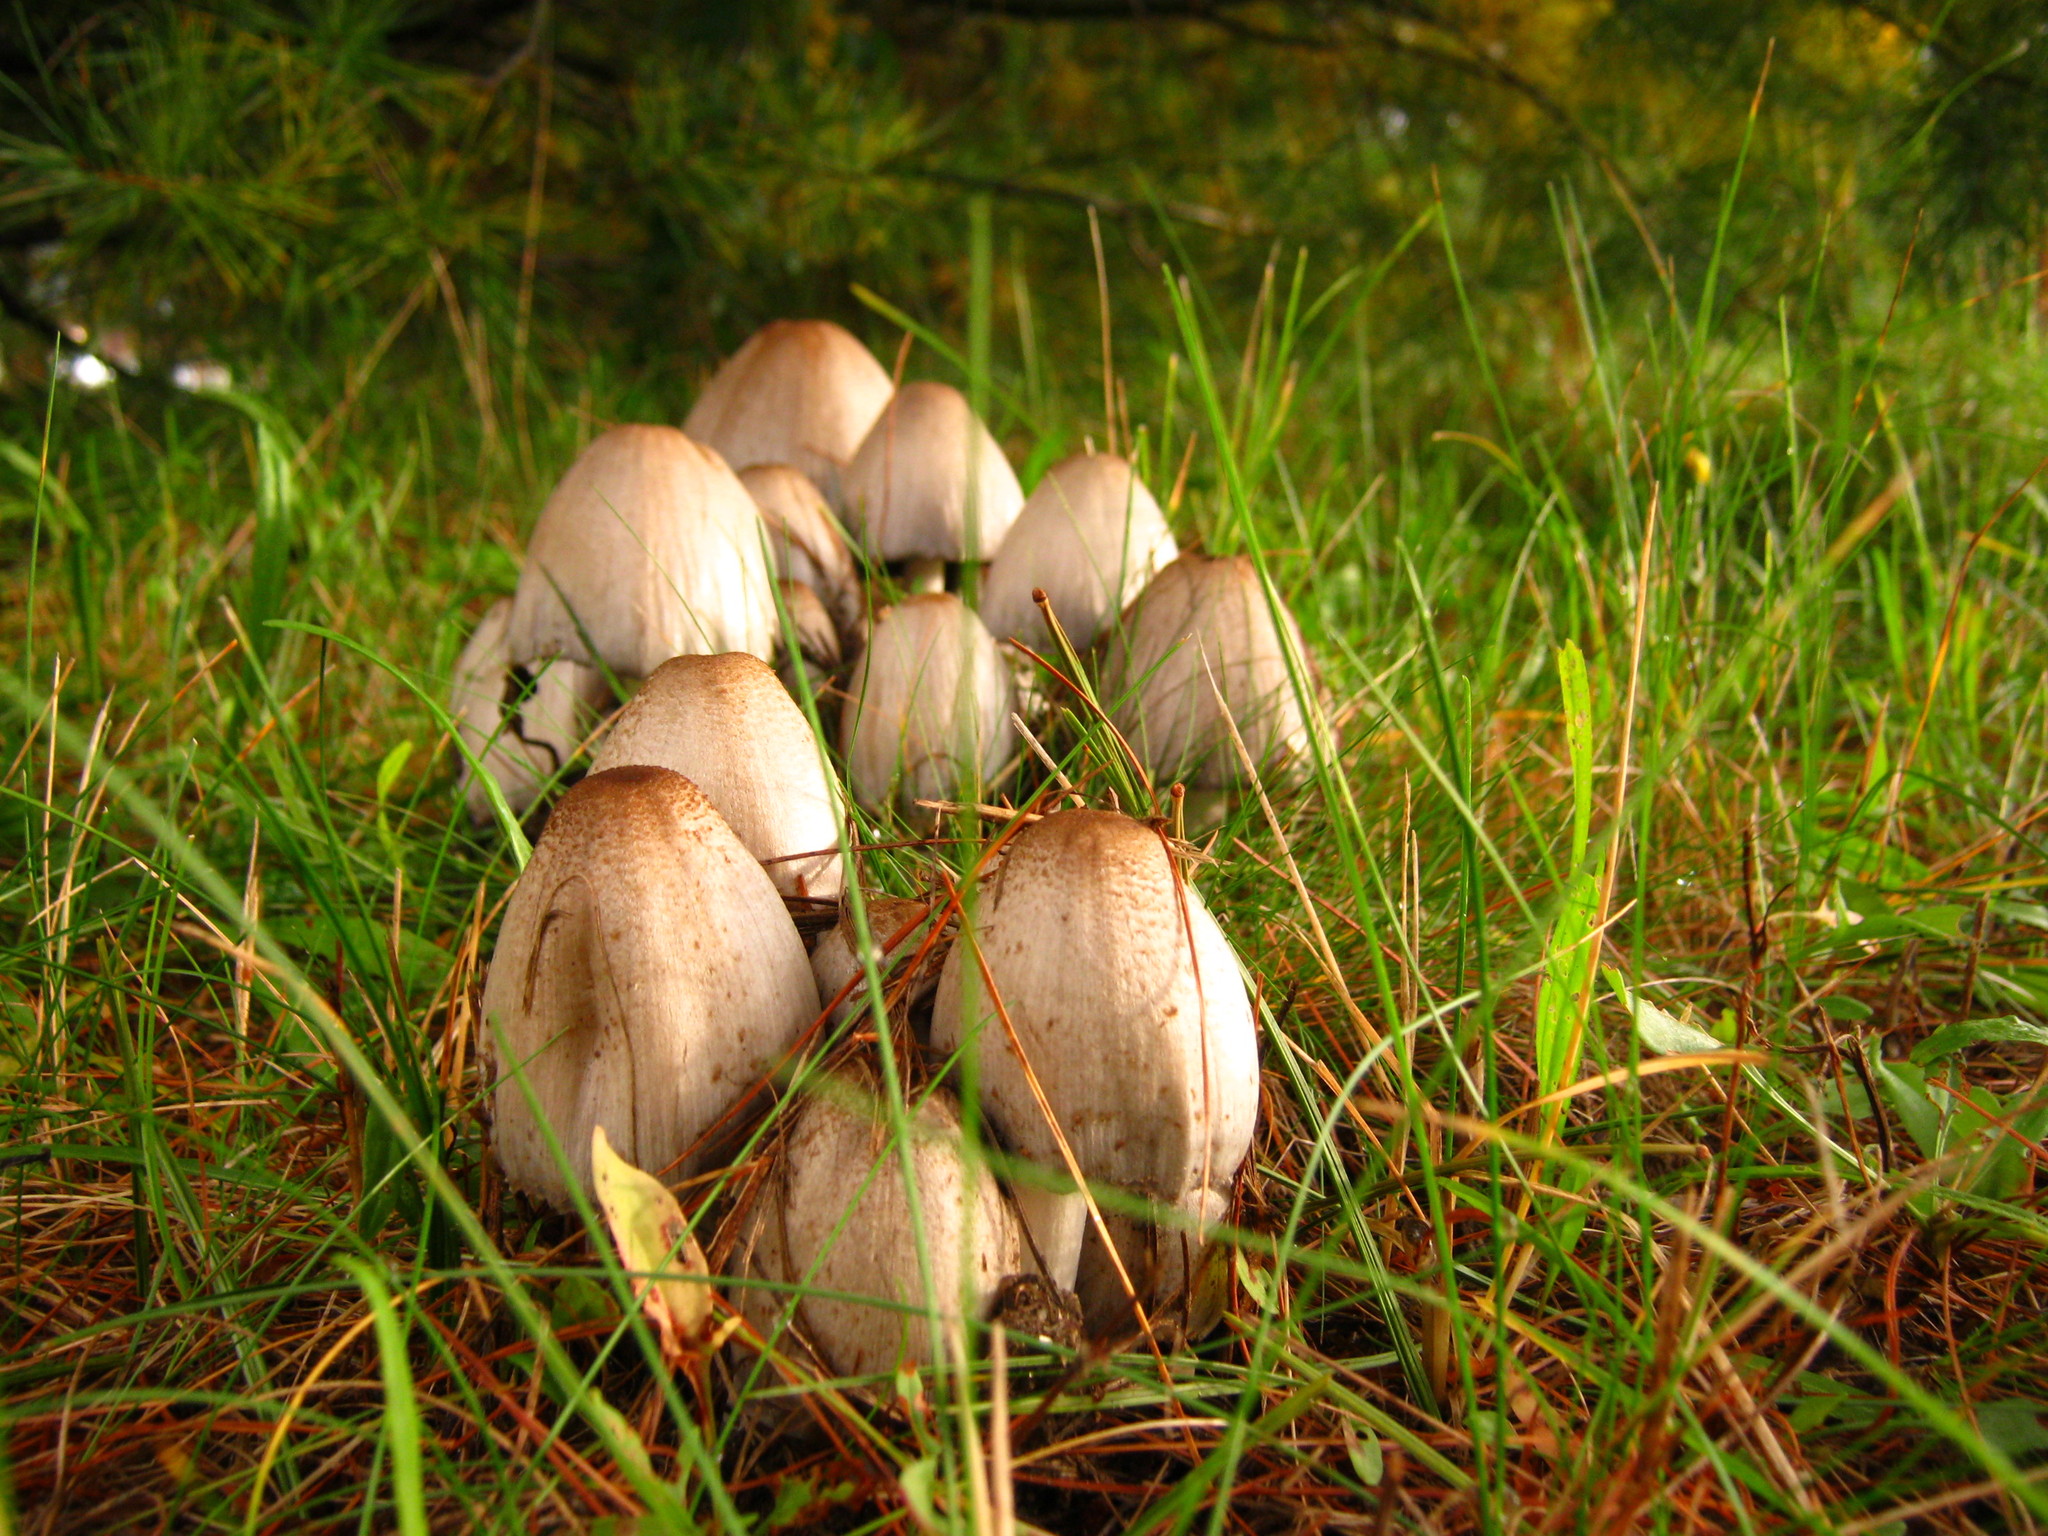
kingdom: Fungi
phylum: Basidiomycota
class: Agaricomycetes
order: Agaricales
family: Psathyrellaceae
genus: Coprinopsis
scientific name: Coprinopsis atramentaria
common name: Common ink-cap
